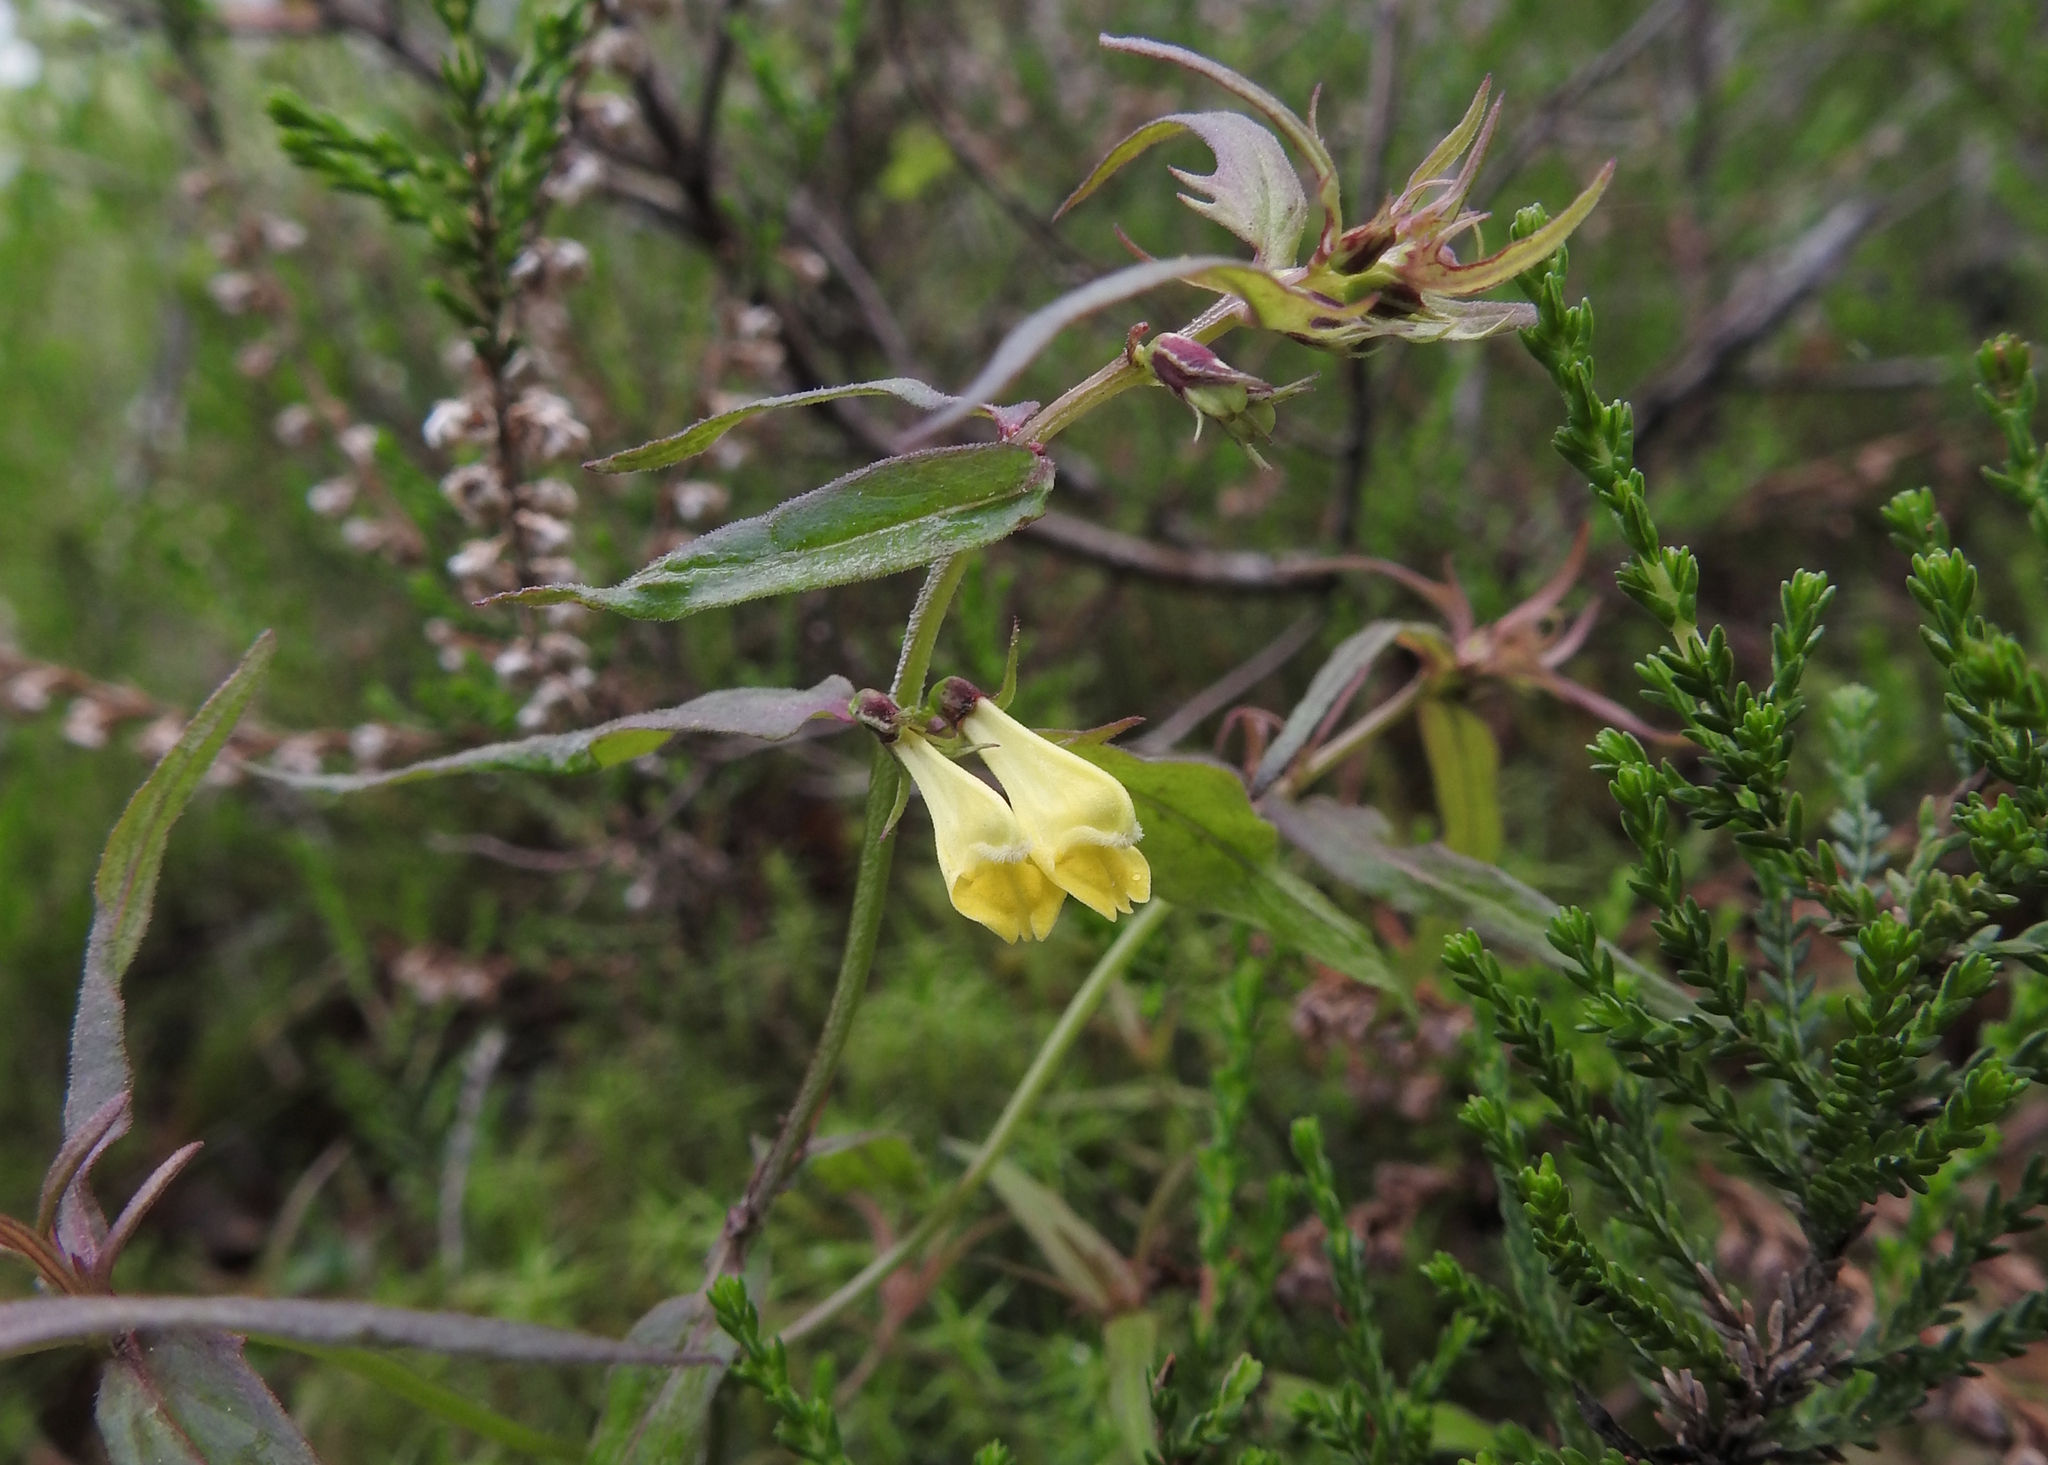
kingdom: Plantae
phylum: Tracheophyta
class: Magnoliopsida
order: Lamiales
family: Orobanchaceae
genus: Melampyrum
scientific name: Melampyrum pratense
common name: Common cow-wheat
